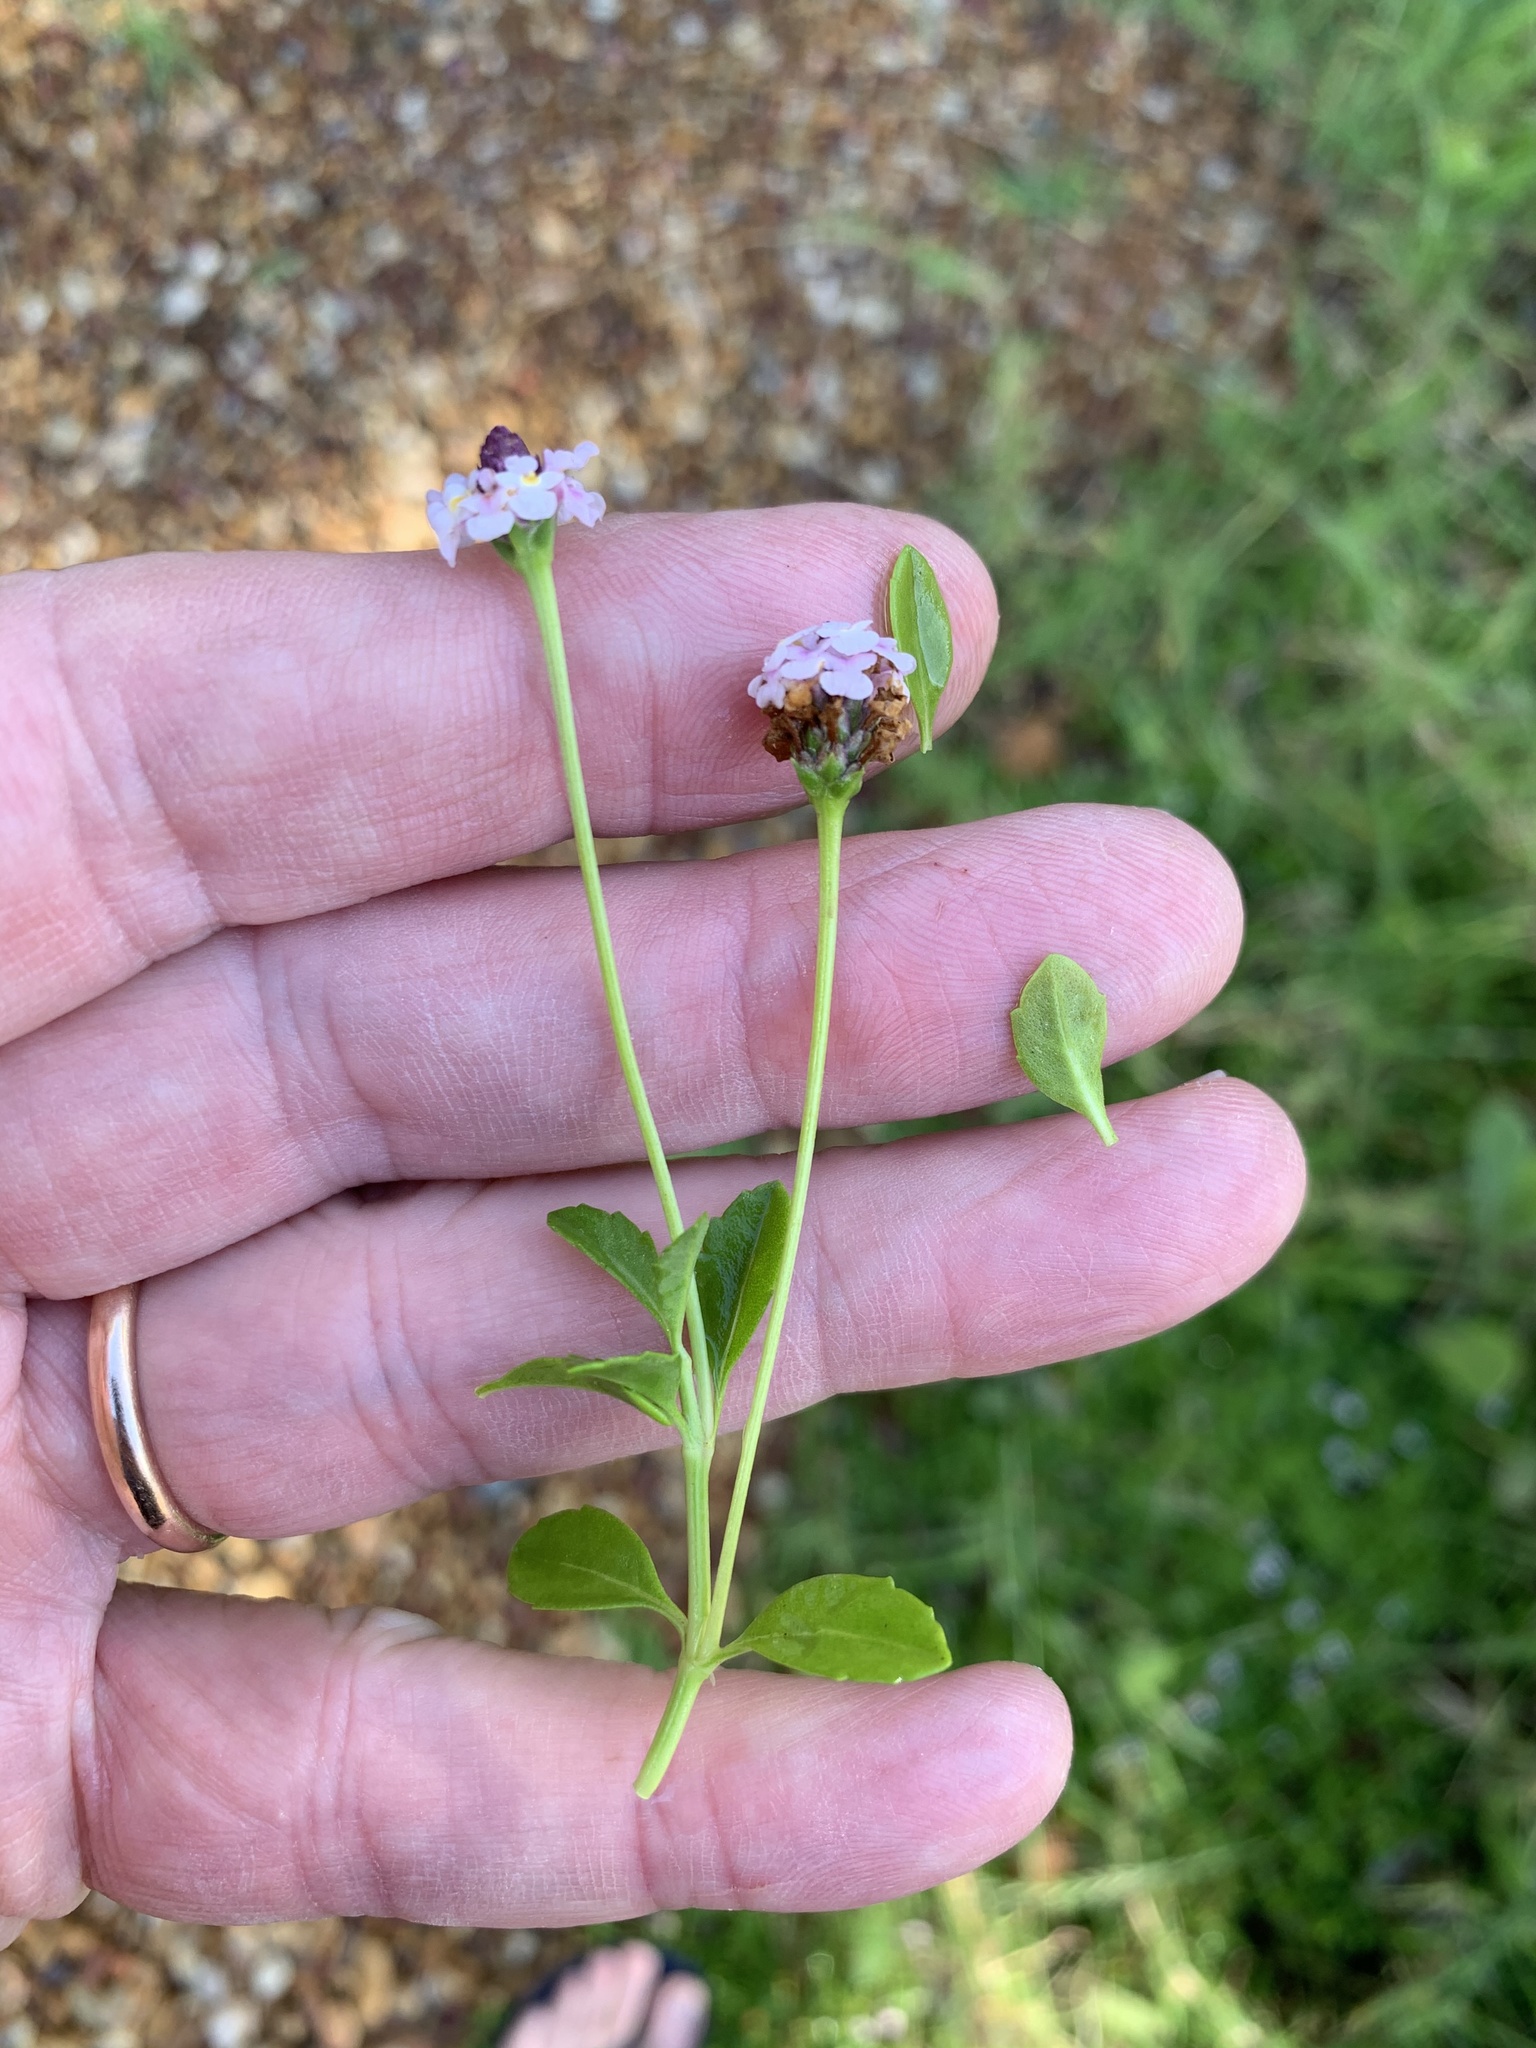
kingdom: Plantae
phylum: Tracheophyta
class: Magnoliopsida
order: Lamiales
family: Verbenaceae
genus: Phyla
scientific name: Phyla nodiflora
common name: Frogfruit
